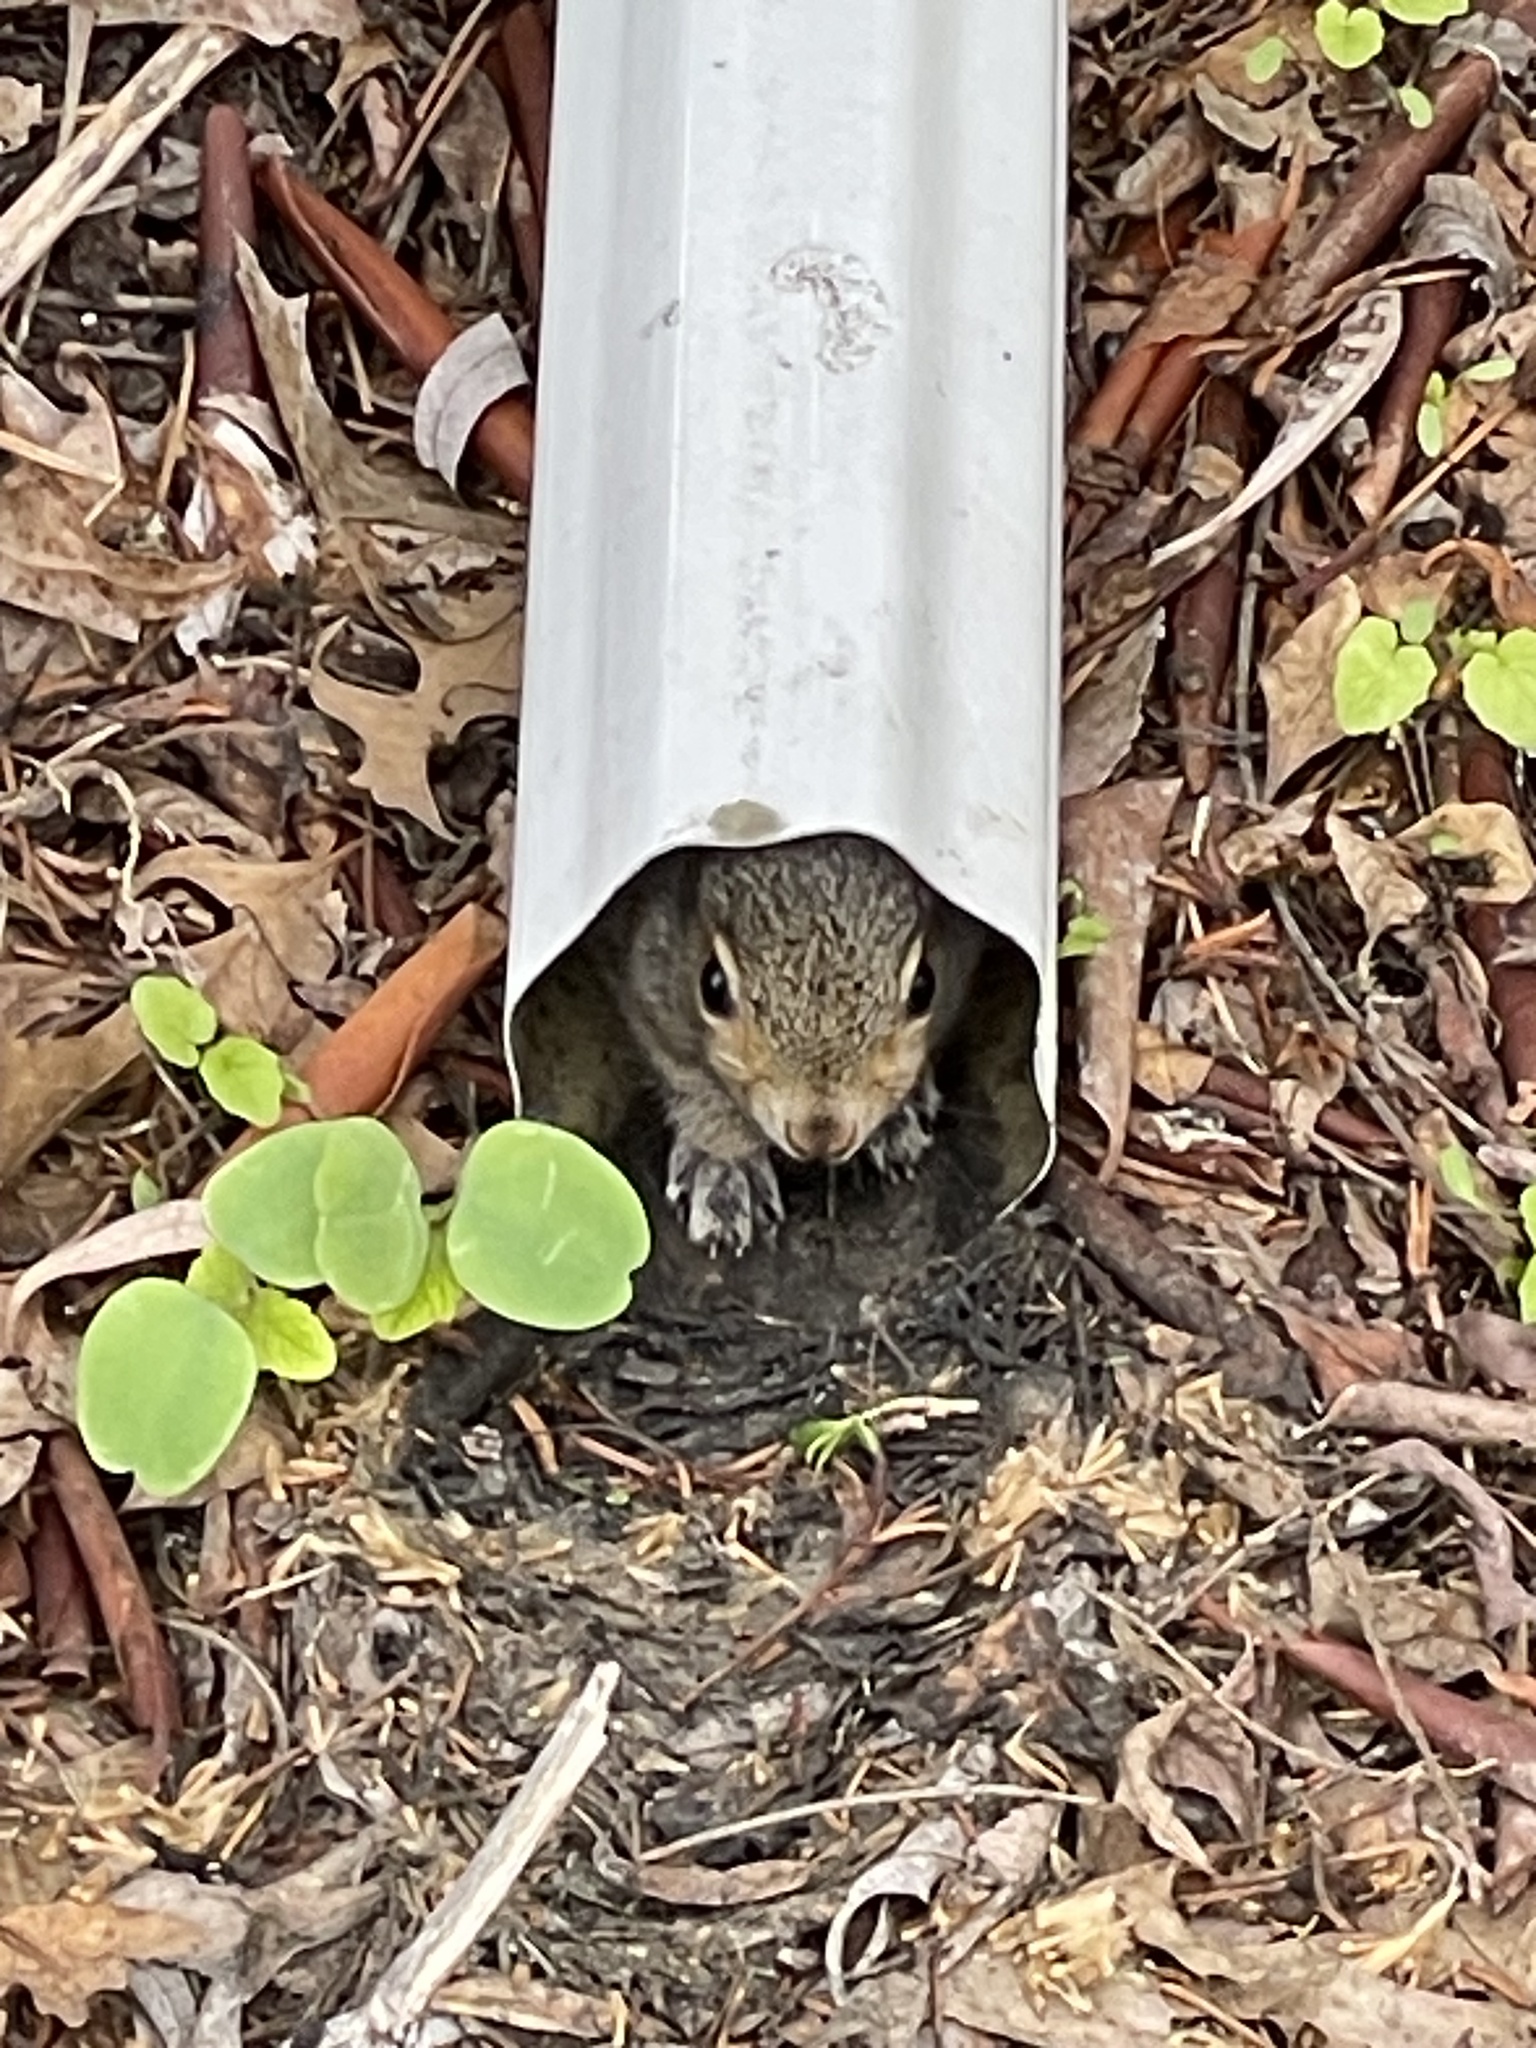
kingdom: Animalia
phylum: Chordata
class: Mammalia
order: Rodentia
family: Sciuridae
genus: Sciurus
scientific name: Sciurus carolinensis
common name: Eastern gray squirrel
